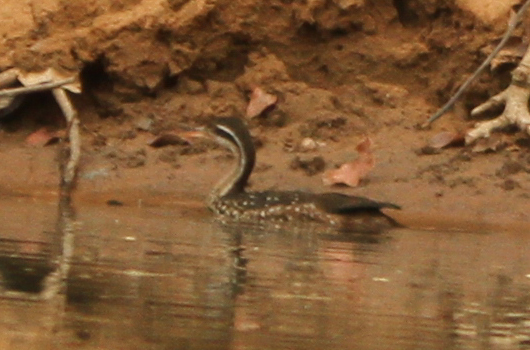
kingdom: Animalia
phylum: Chordata
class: Aves
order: Gruiformes
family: Heliornithidae
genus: Podica
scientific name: Podica senegalensis
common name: African finfoot
